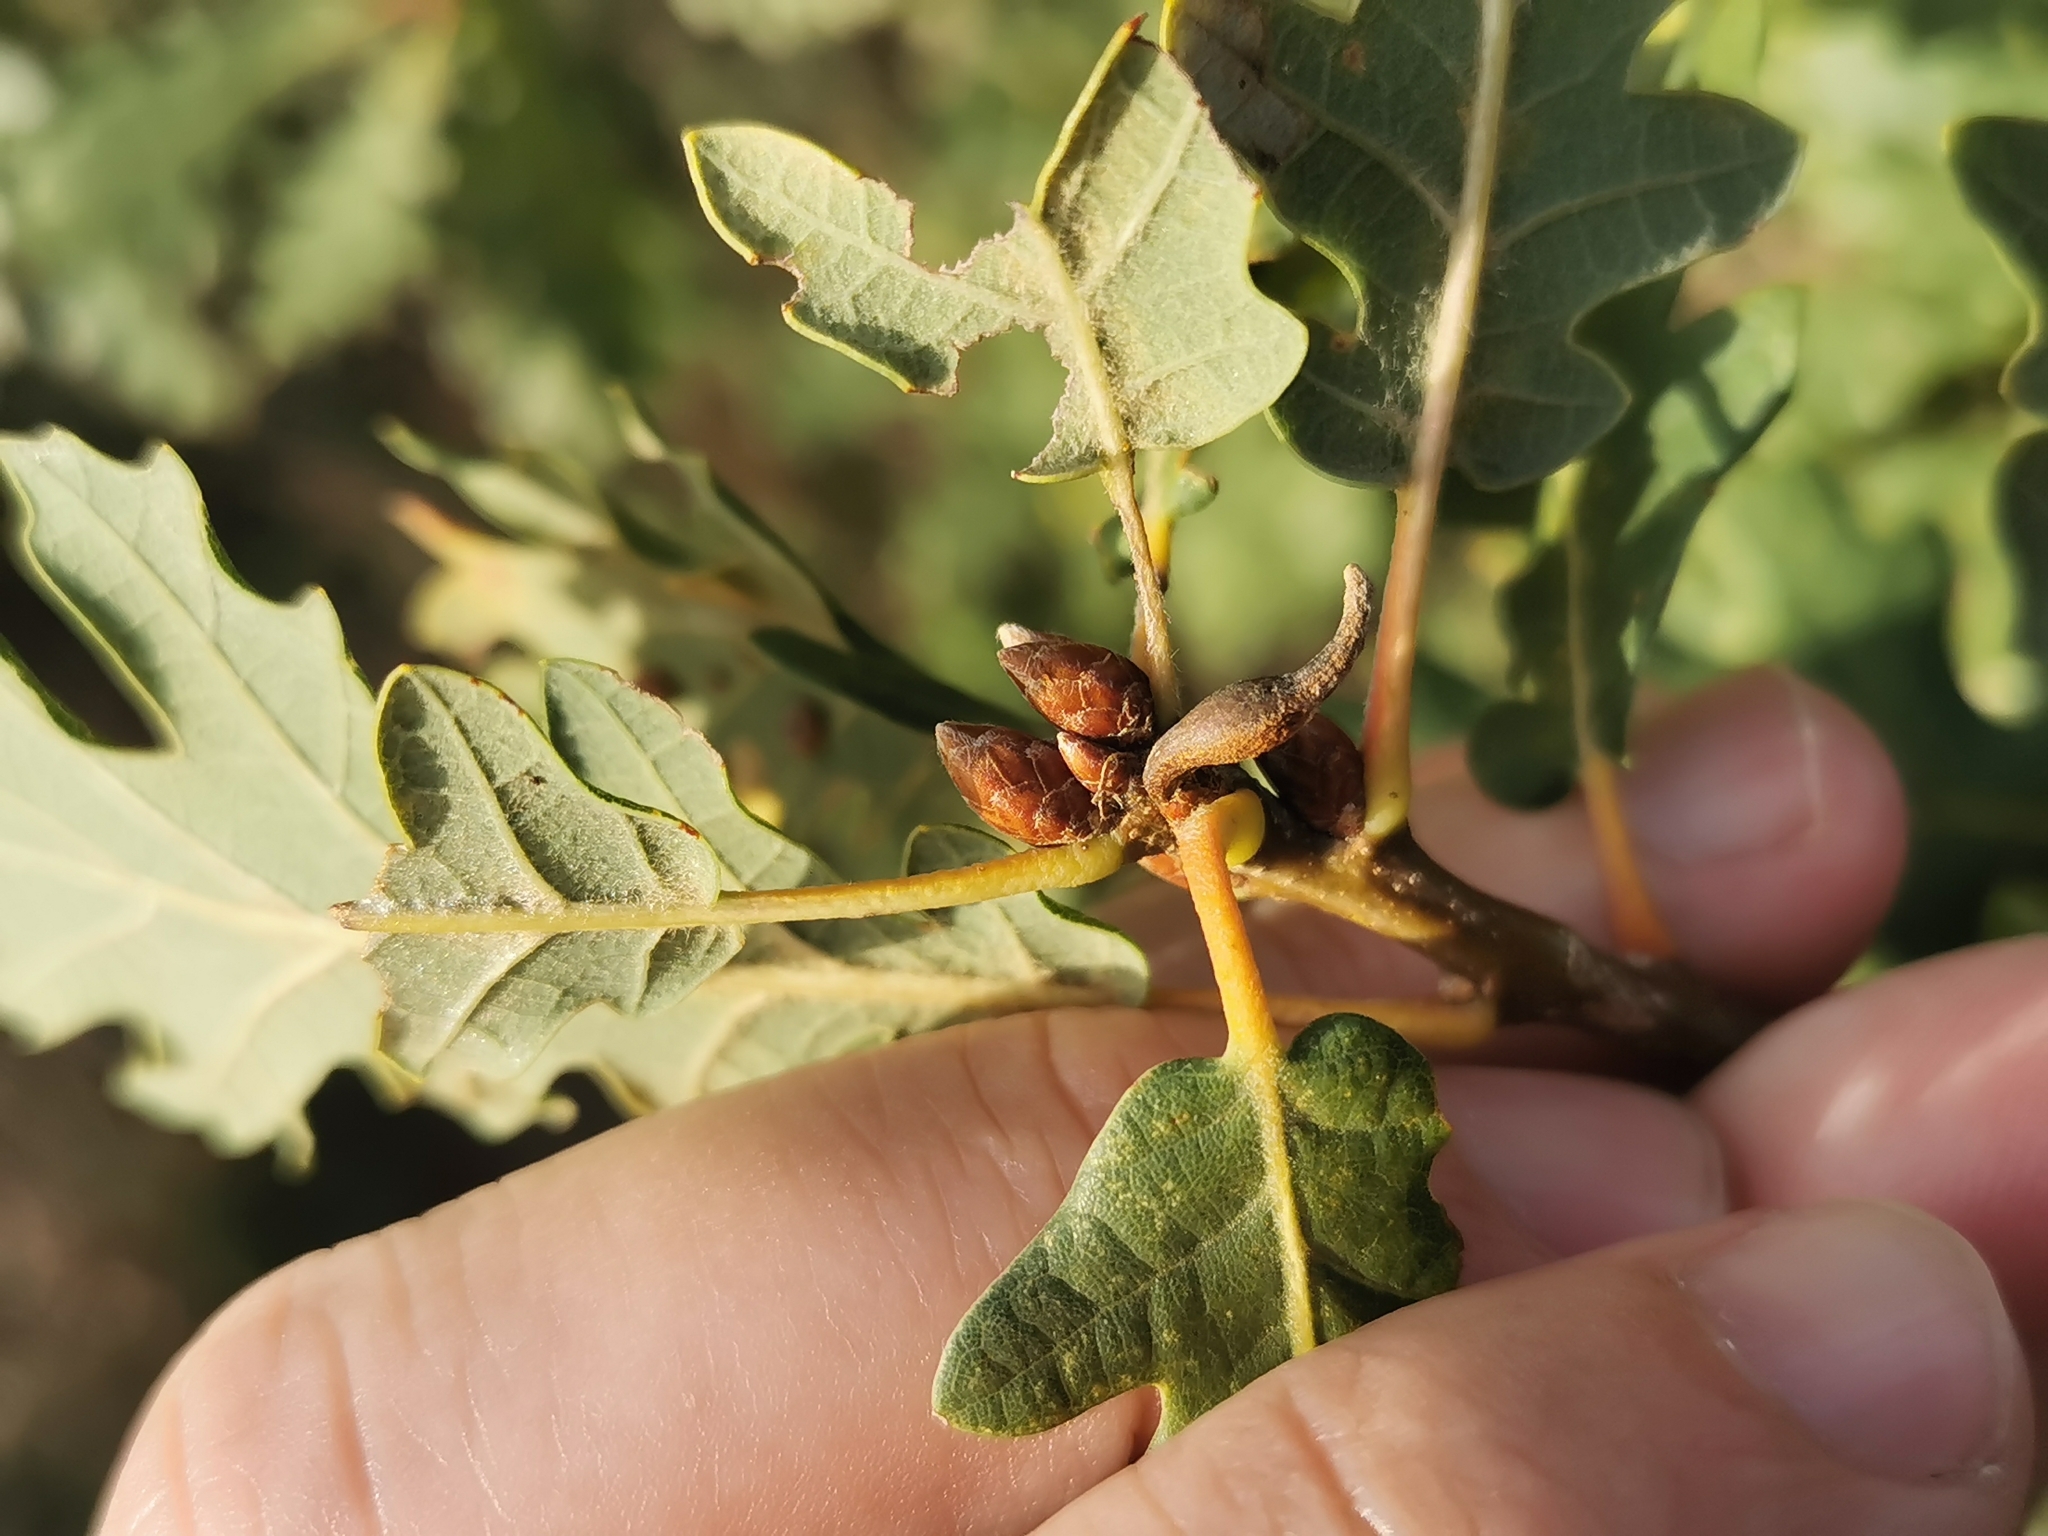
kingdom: Animalia
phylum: Arthropoda
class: Insecta
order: Hymenoptera
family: Cynipidae
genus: Andricus
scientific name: Andricus aries
